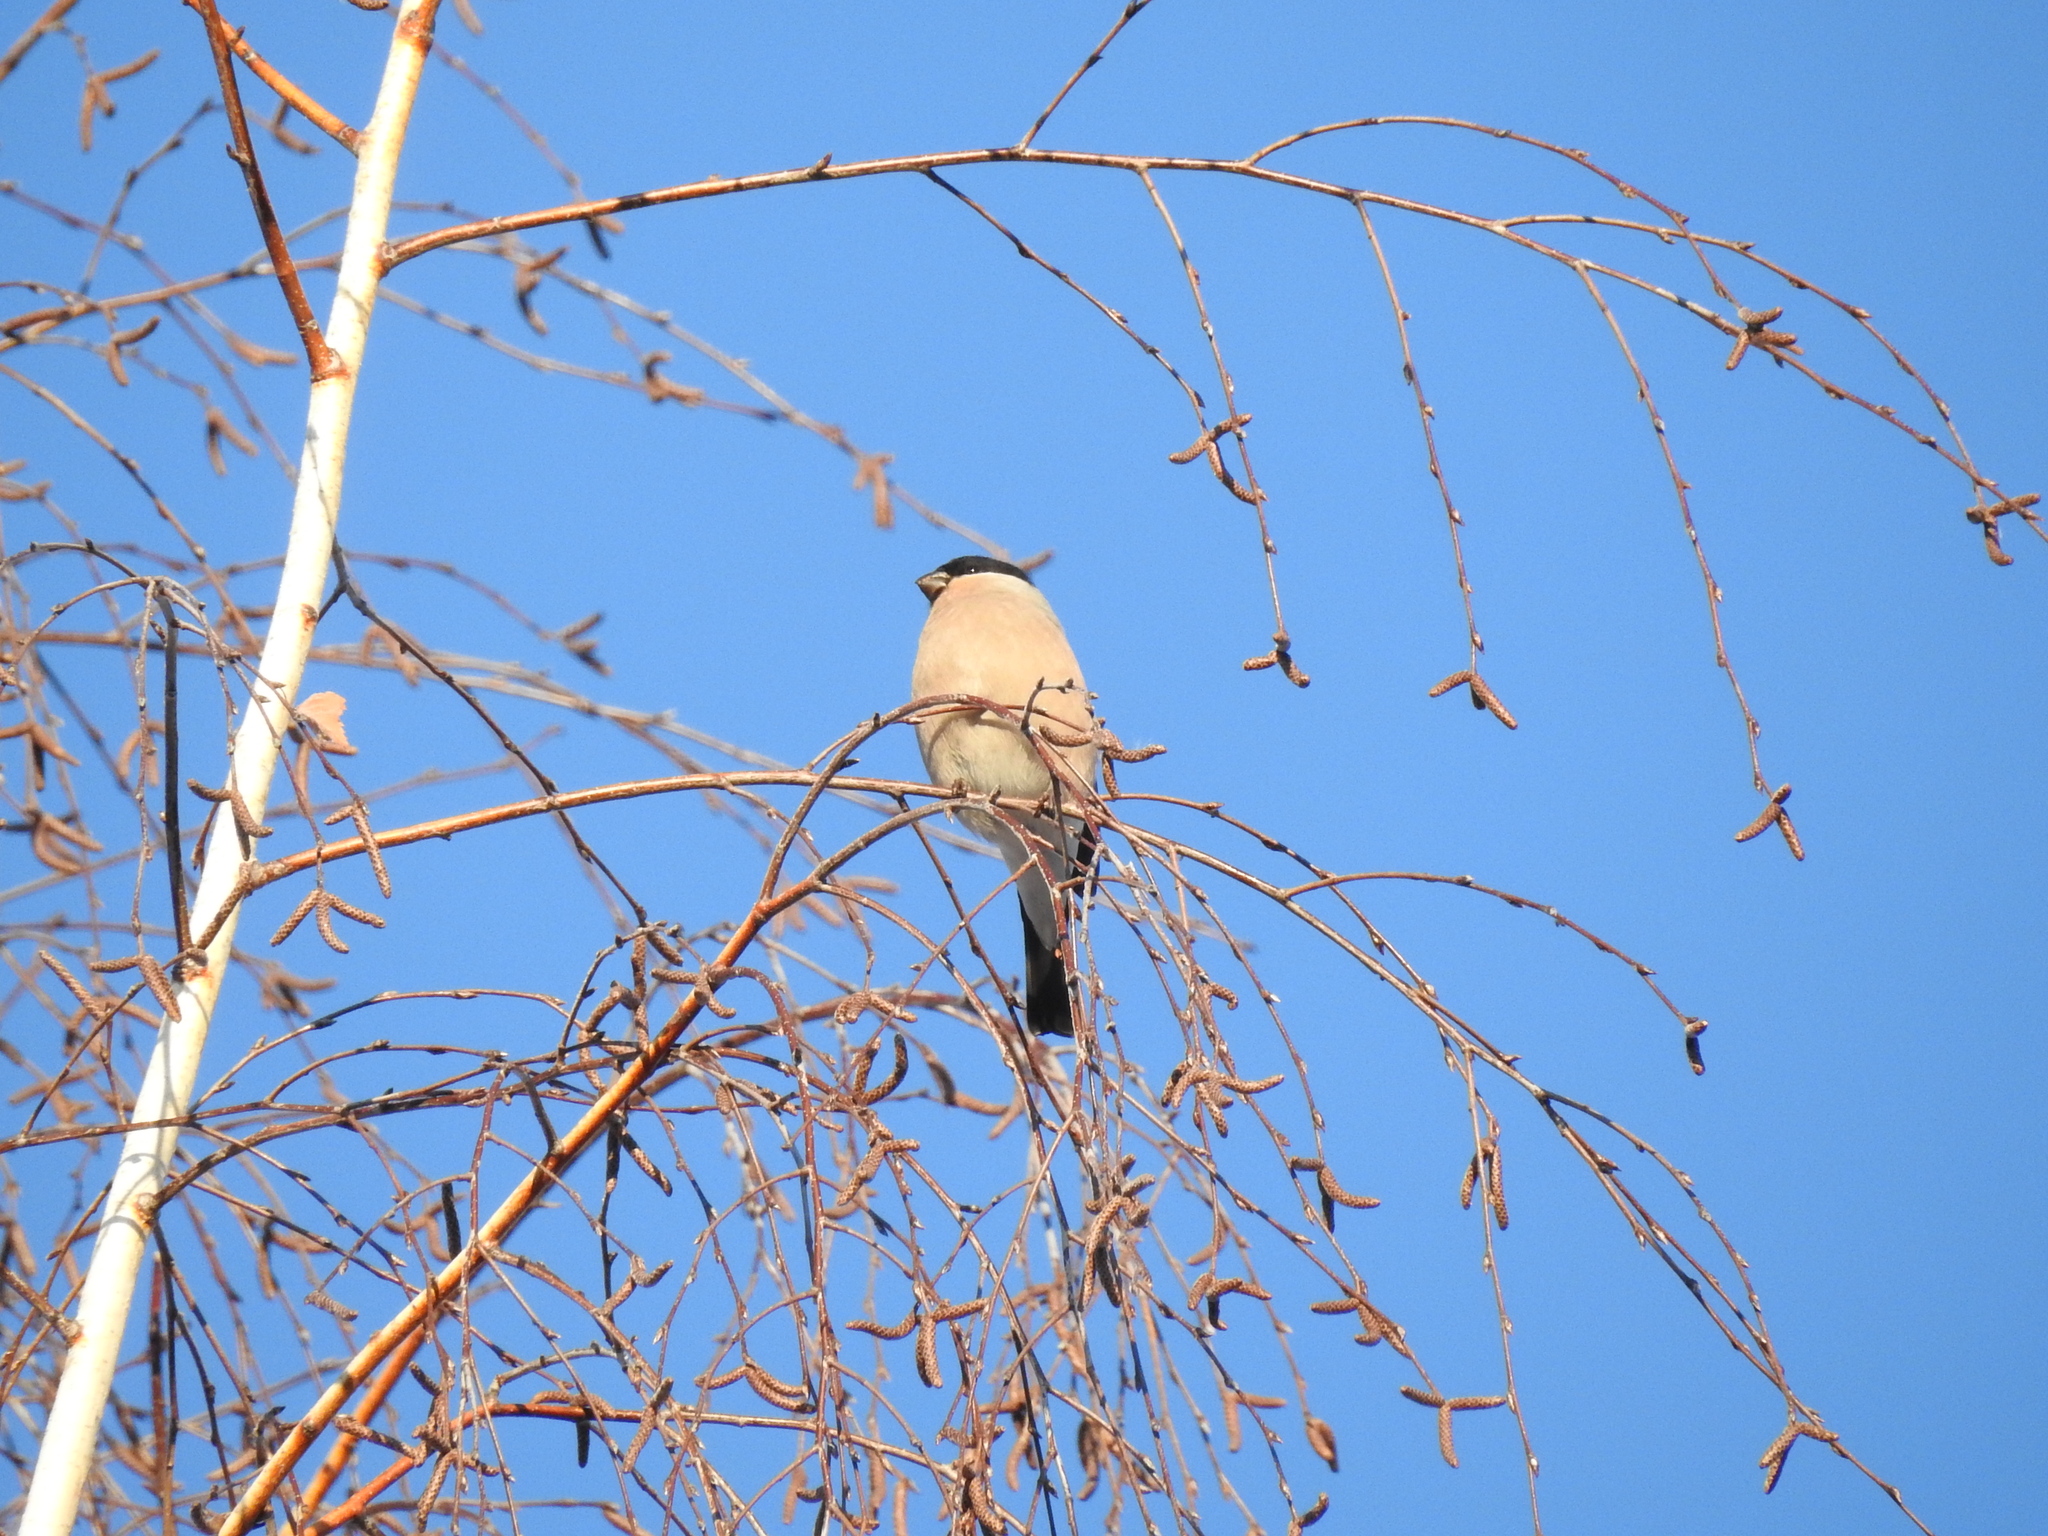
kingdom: Animalia
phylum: Chordata
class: Aves
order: Passeriformes
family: Fringillidae
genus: Pyrrhula
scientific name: Pyrrhula pyrrhula
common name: Eurasian bullfinch
